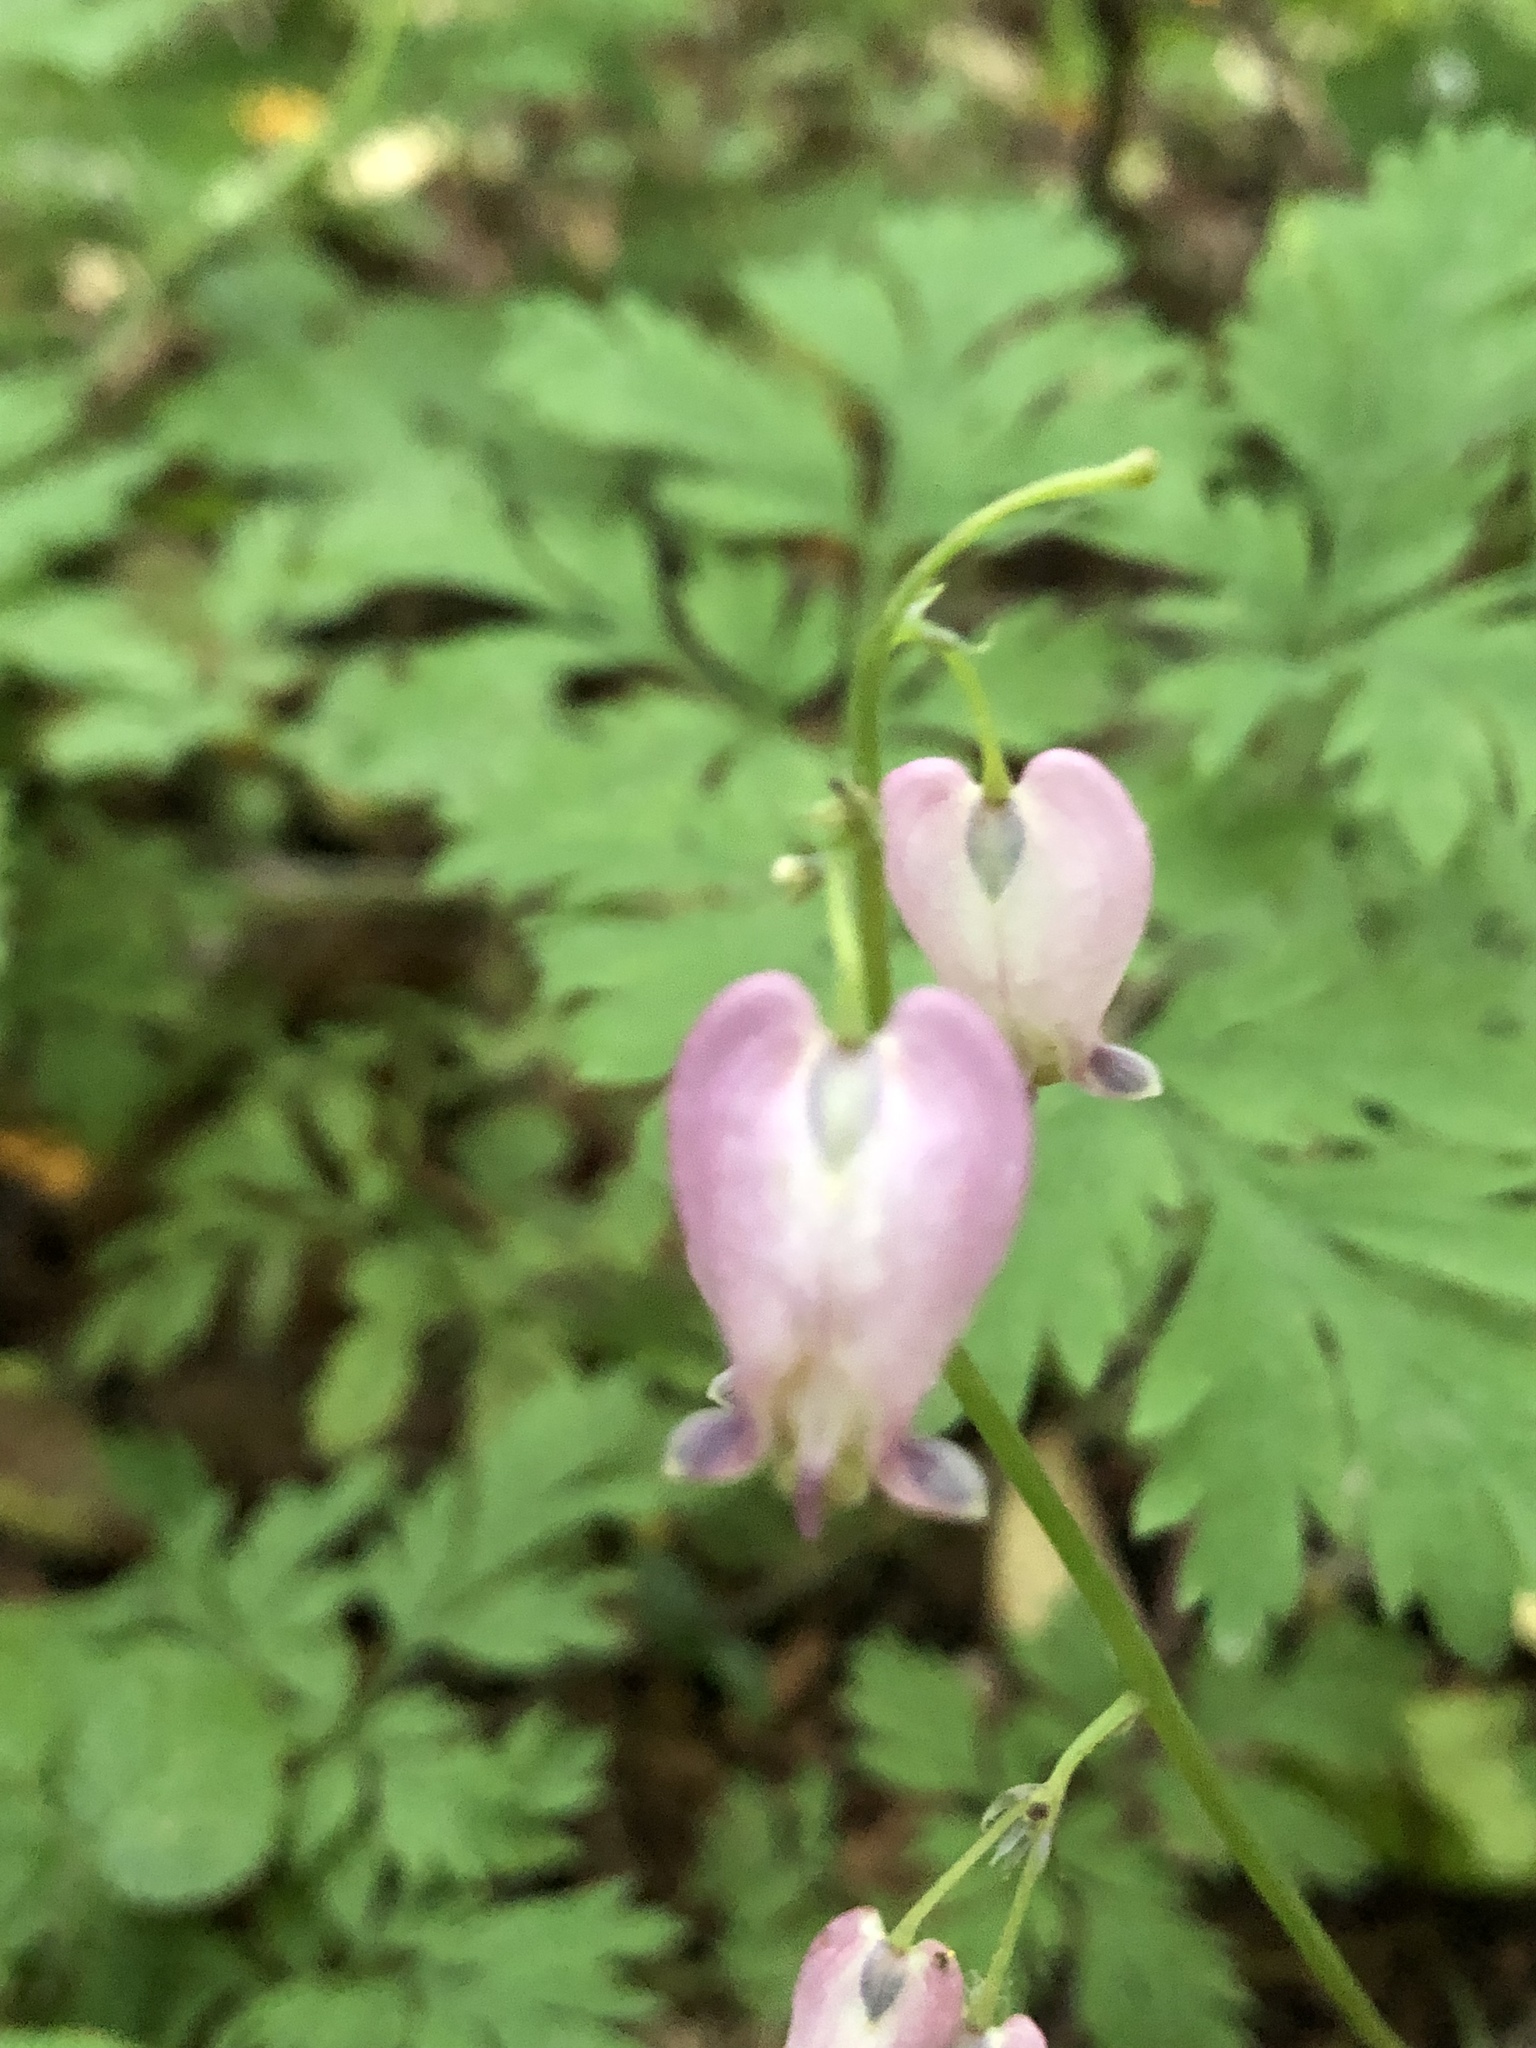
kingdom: Plantae
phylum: Tracheophyta
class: Magnoliopsida
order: Ranunculales
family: Papaveraceae
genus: Dicentra
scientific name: Dicentra formosa
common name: Bleeding-heart
